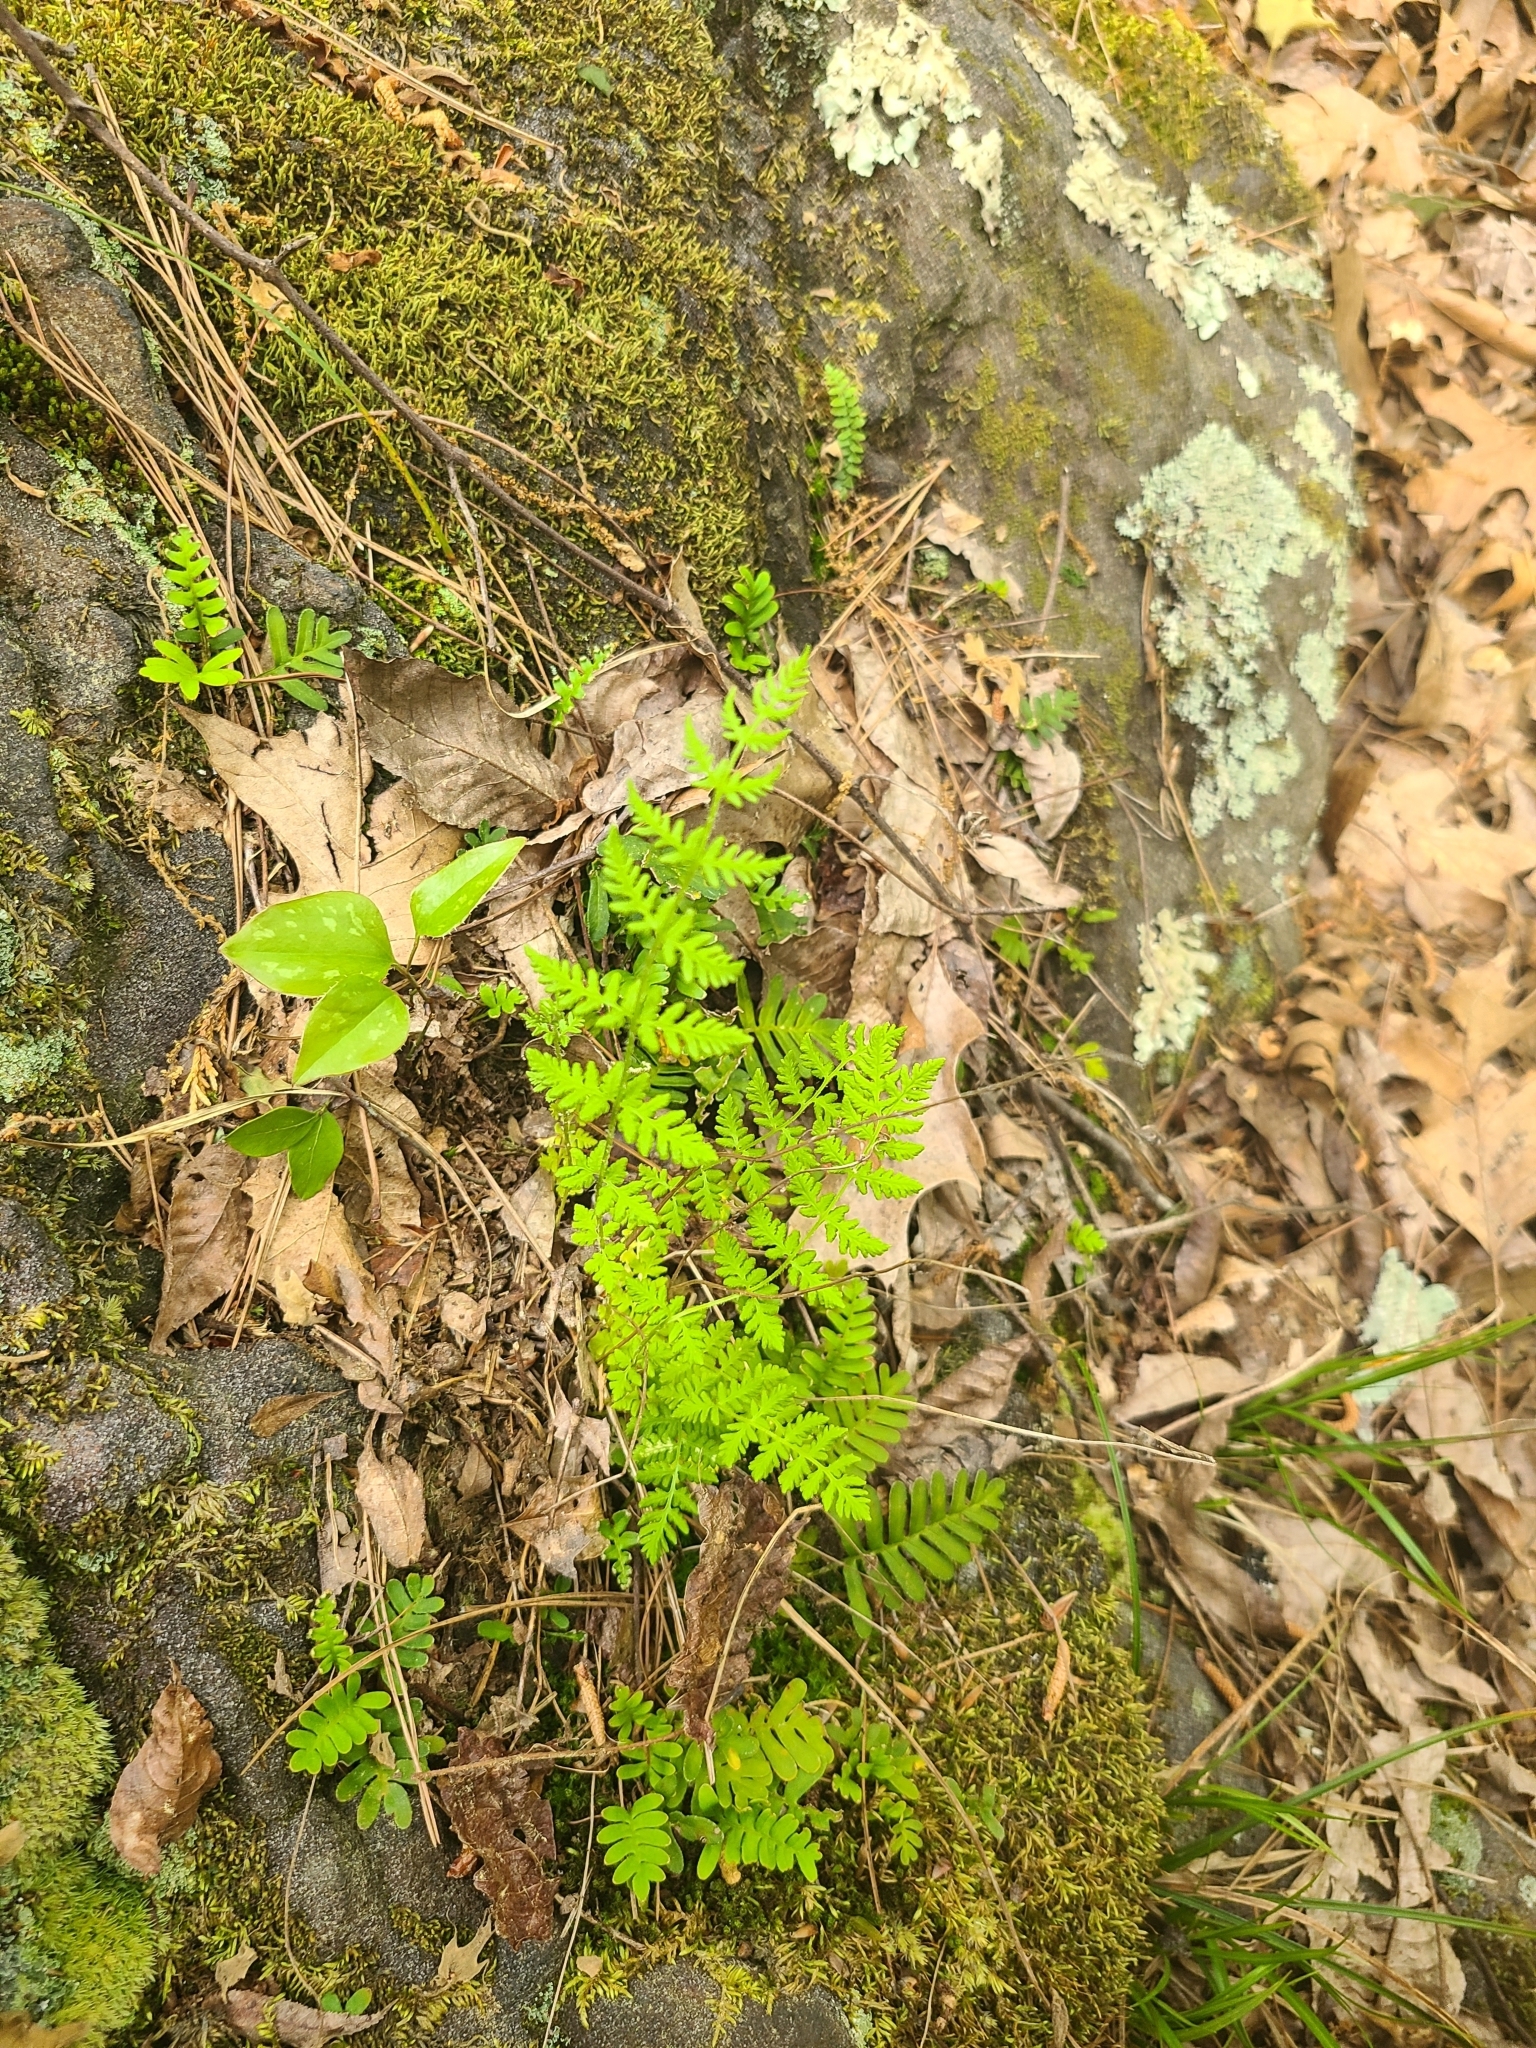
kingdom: Plantae
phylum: Tracheophyta
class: Polypodiopsida
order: Polypodiales
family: Woodsiaceae
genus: Physematium
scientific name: Physematium obtusum
